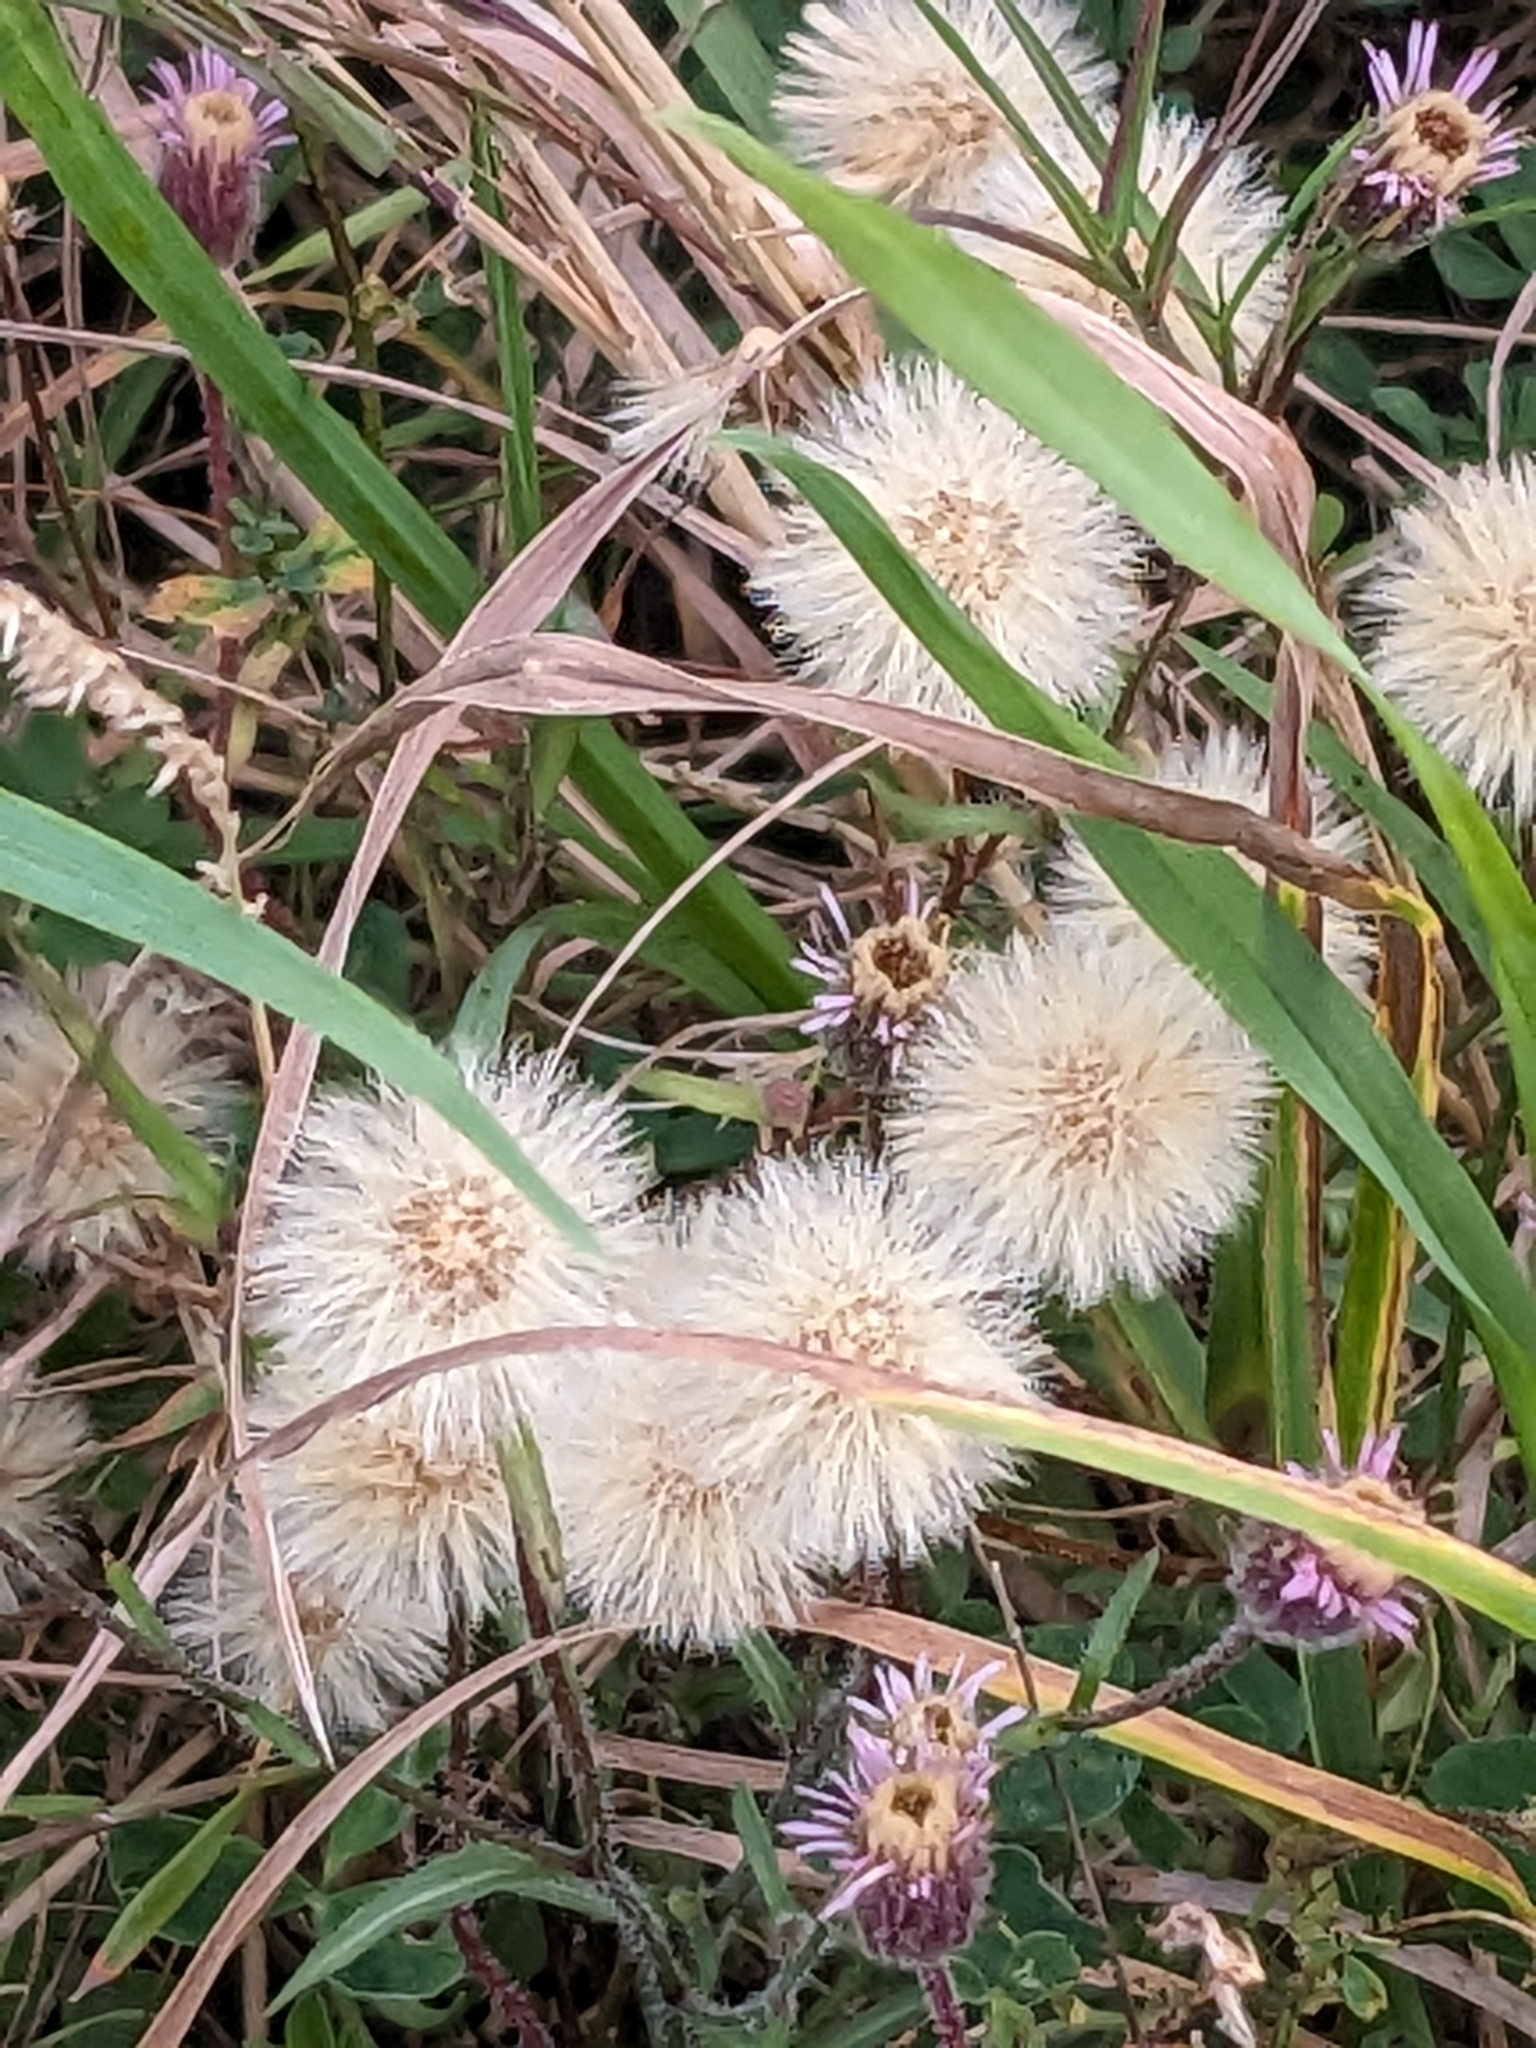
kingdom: Plantae
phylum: Tracheophyta
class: Magnoliopsida
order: Asterales
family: Asteraceae
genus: Erigeron
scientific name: Erigeron acris
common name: Blue fleabane
